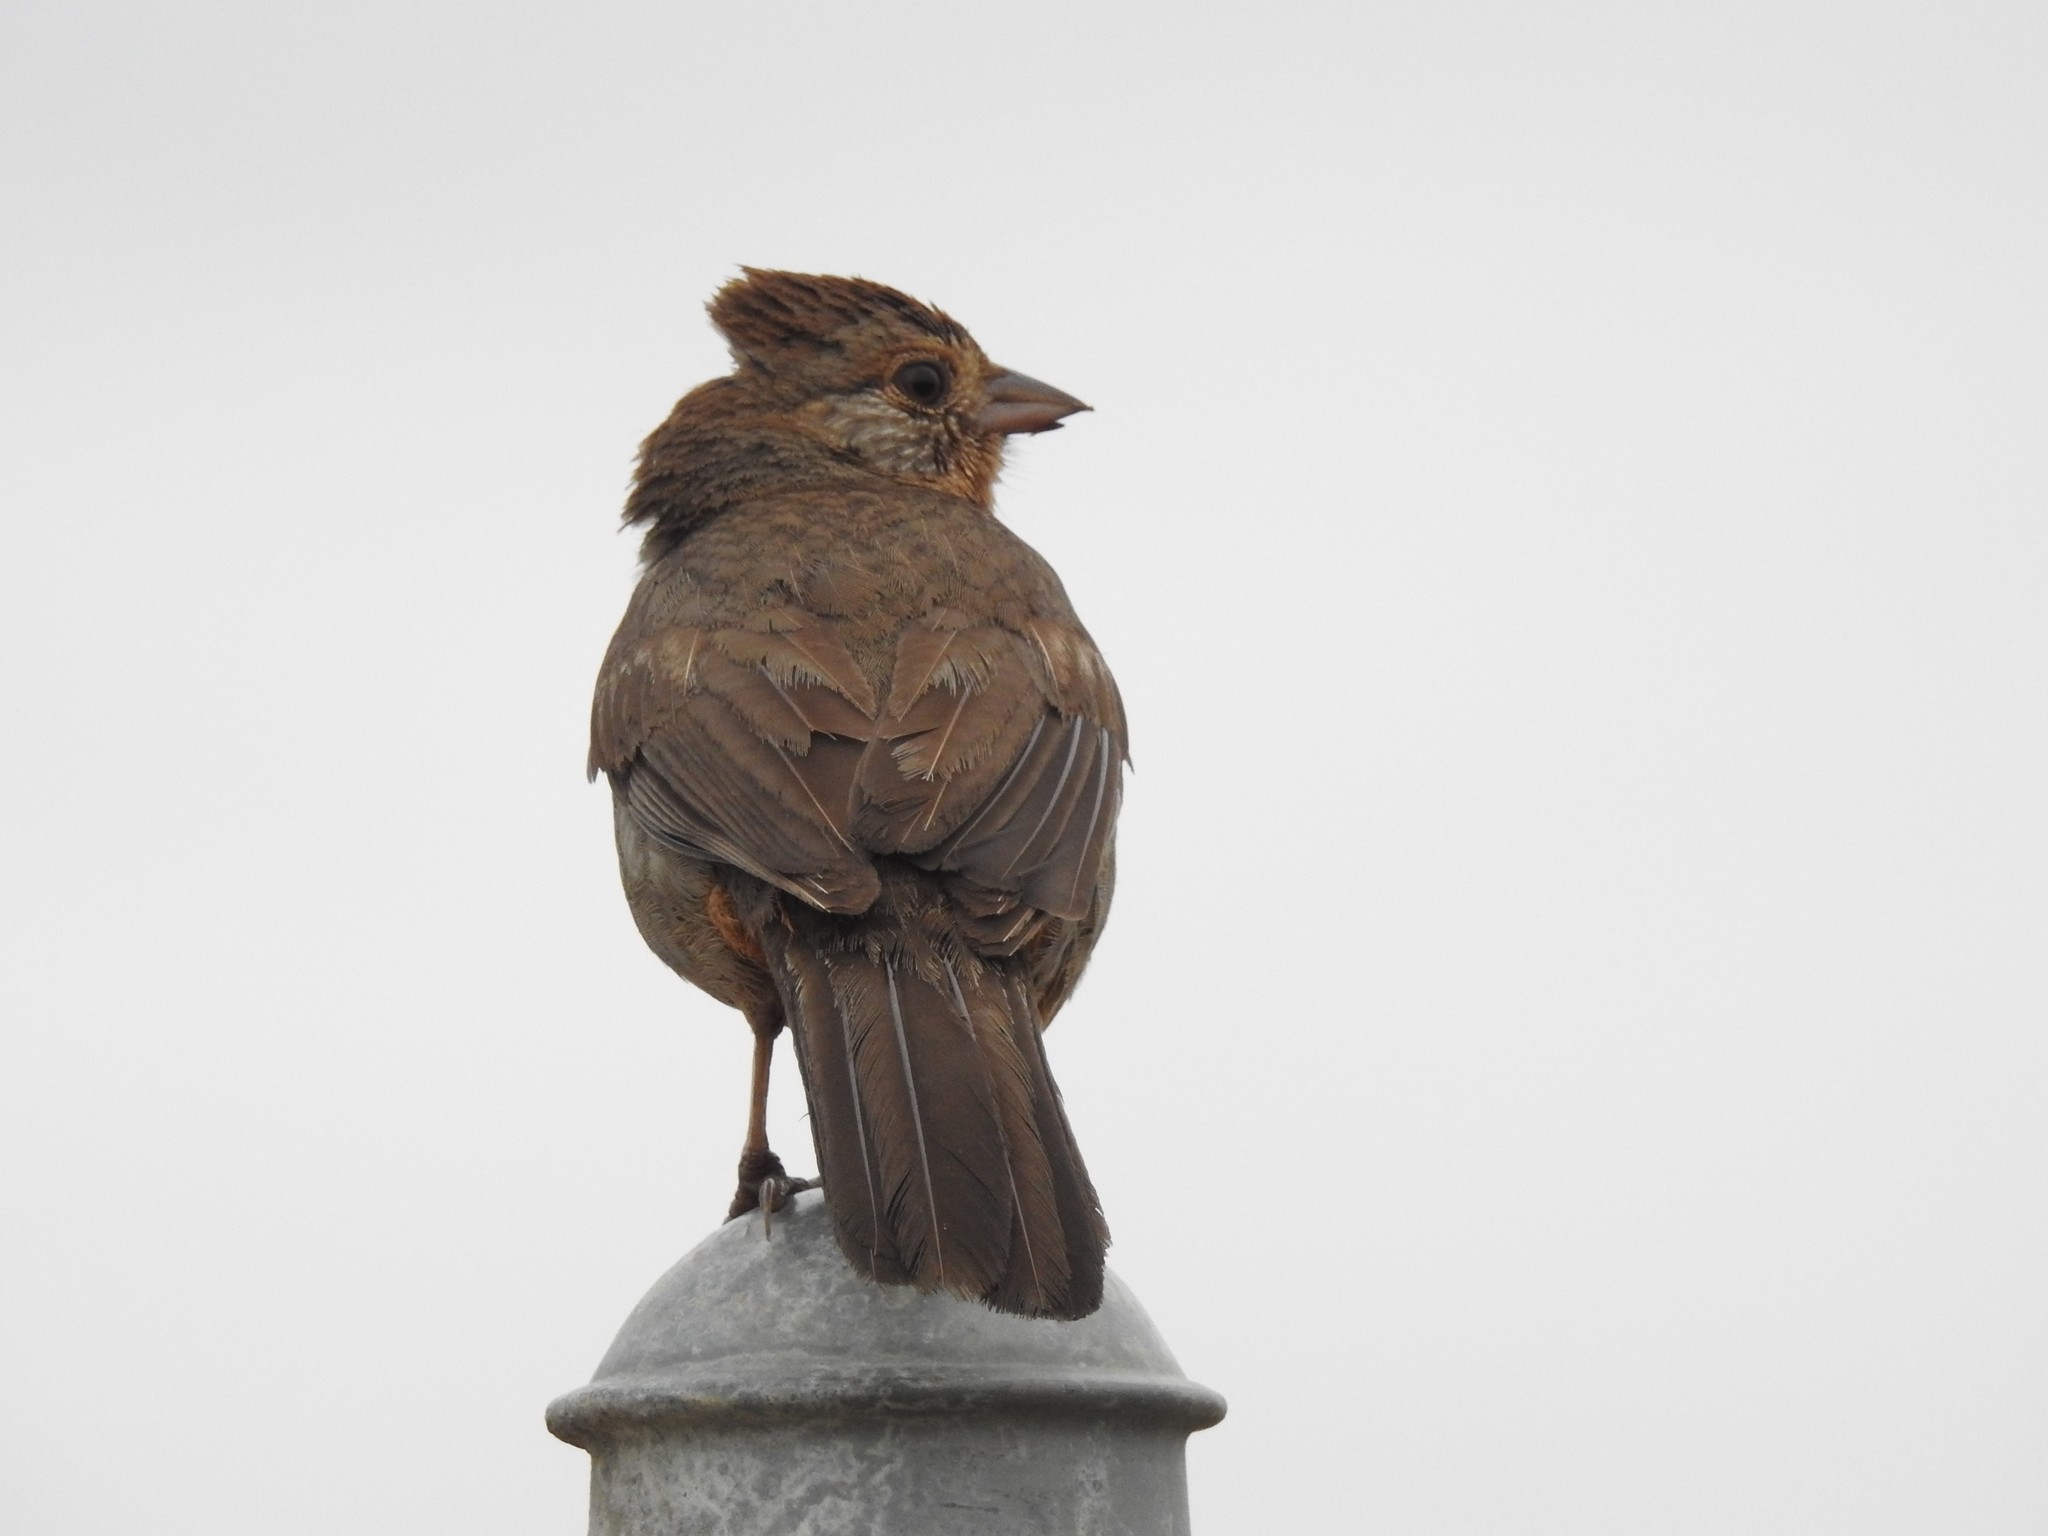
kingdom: Animalia
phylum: Chordata
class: Aves
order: Passeriformes
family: Passerellidae
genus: Melozone
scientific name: Melozone crissalis
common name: California towhee
